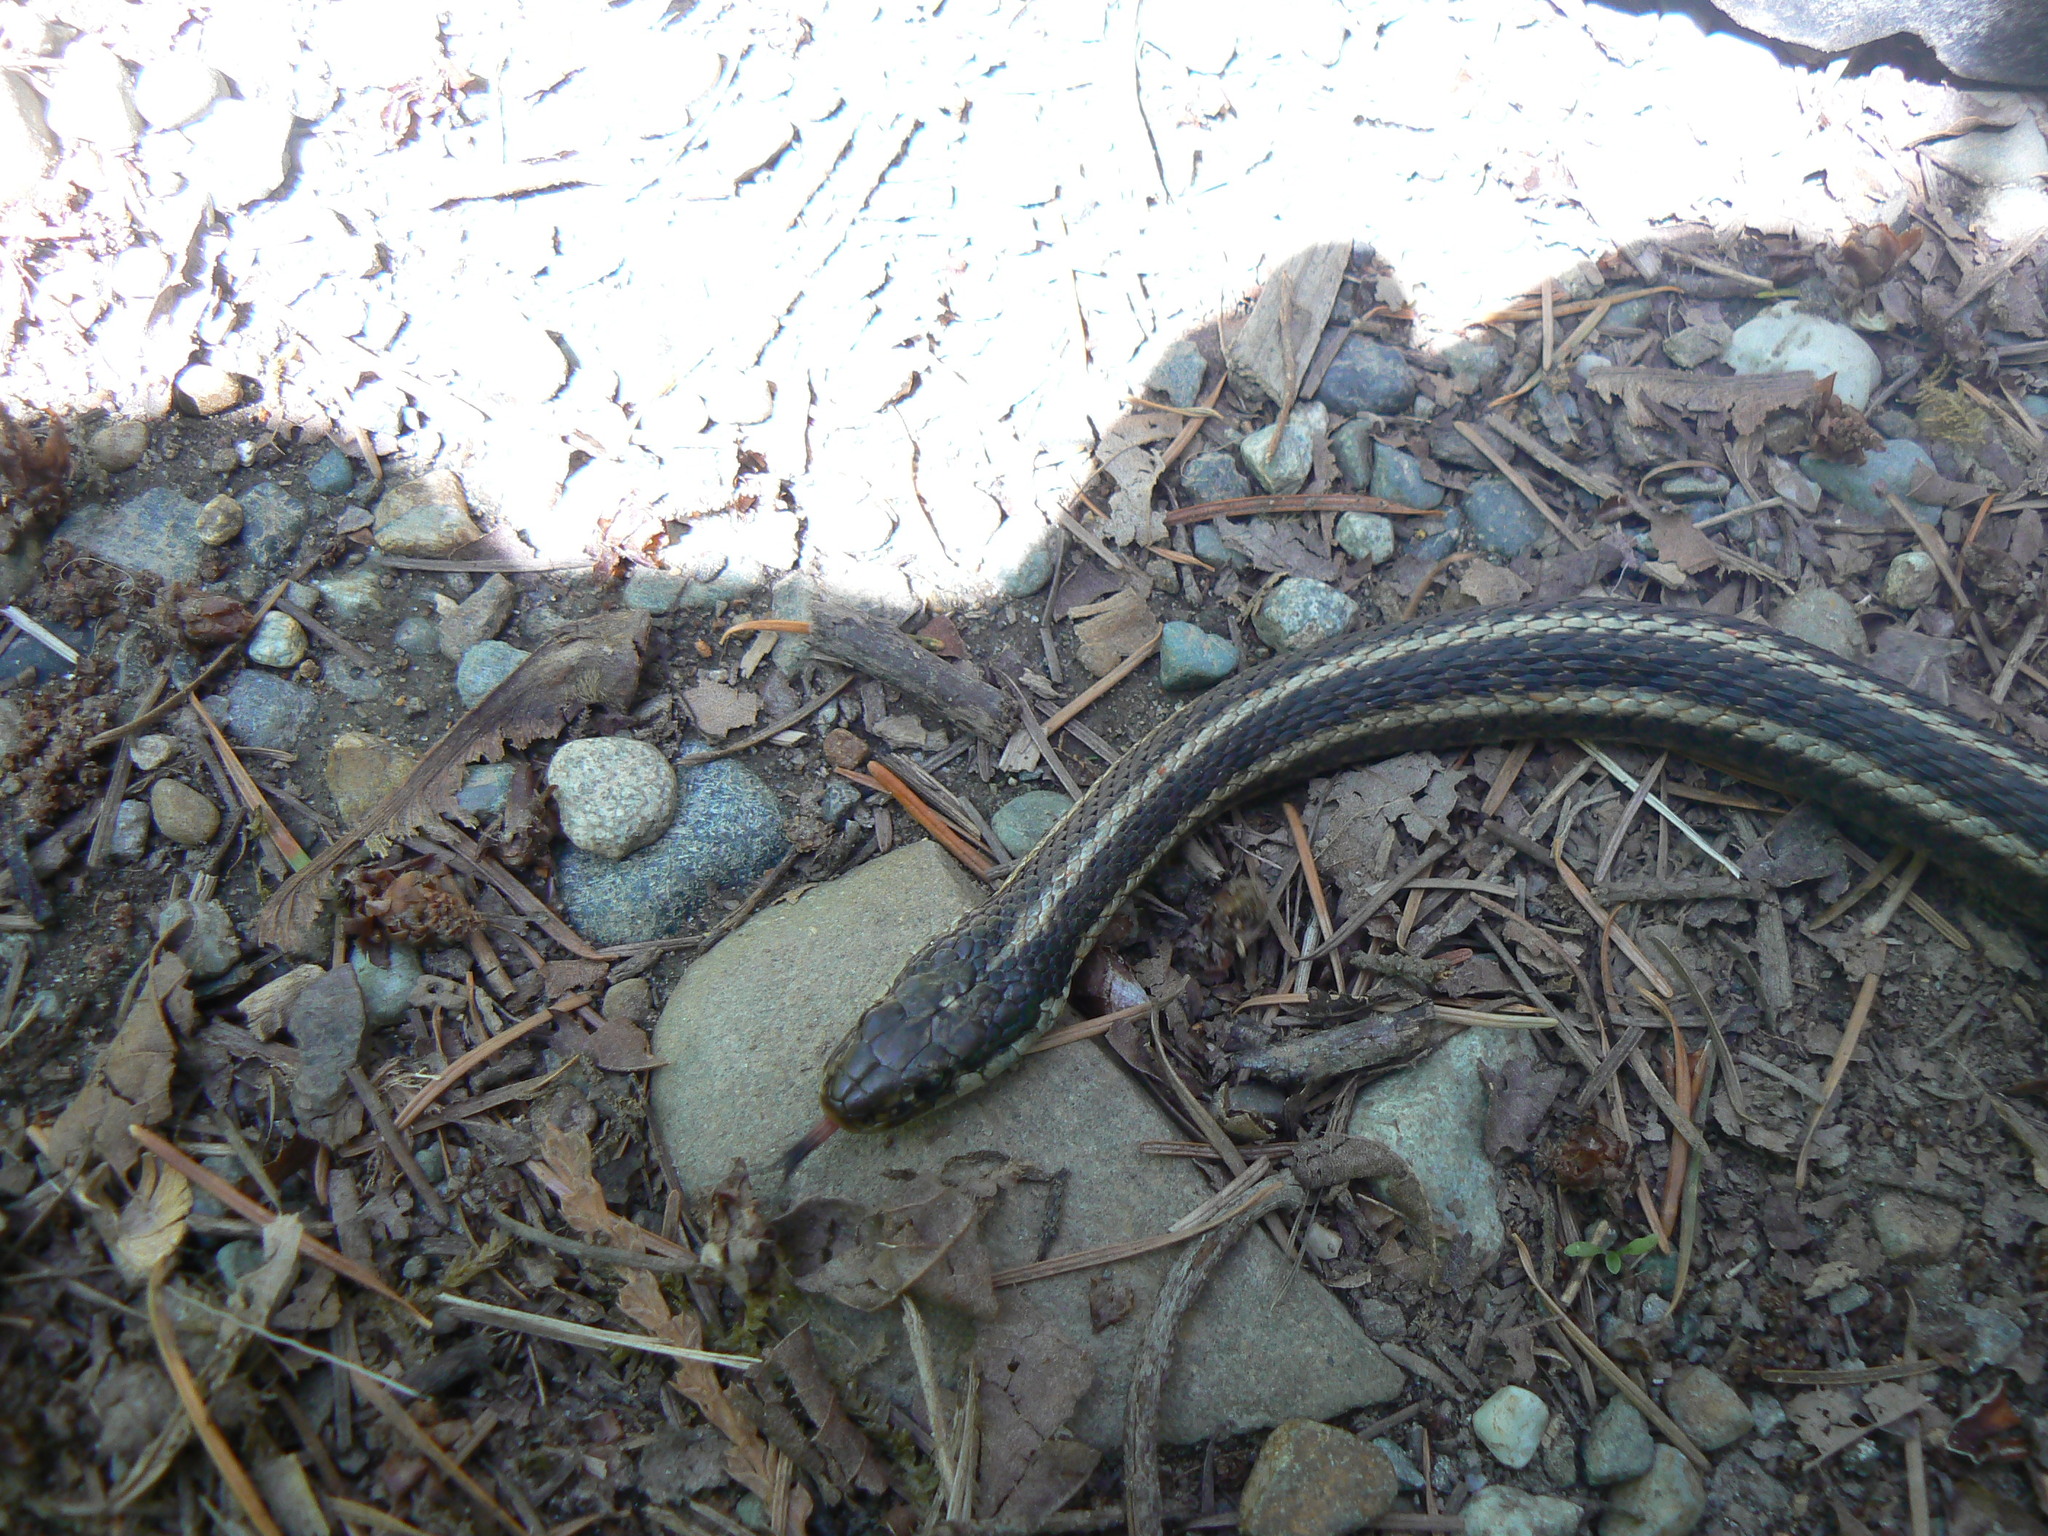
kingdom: Animalia
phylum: Chordata
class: Squamata
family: Colubridae
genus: Thamnophis
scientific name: Thamnophis ordinoides
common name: Northwestern garter snake
